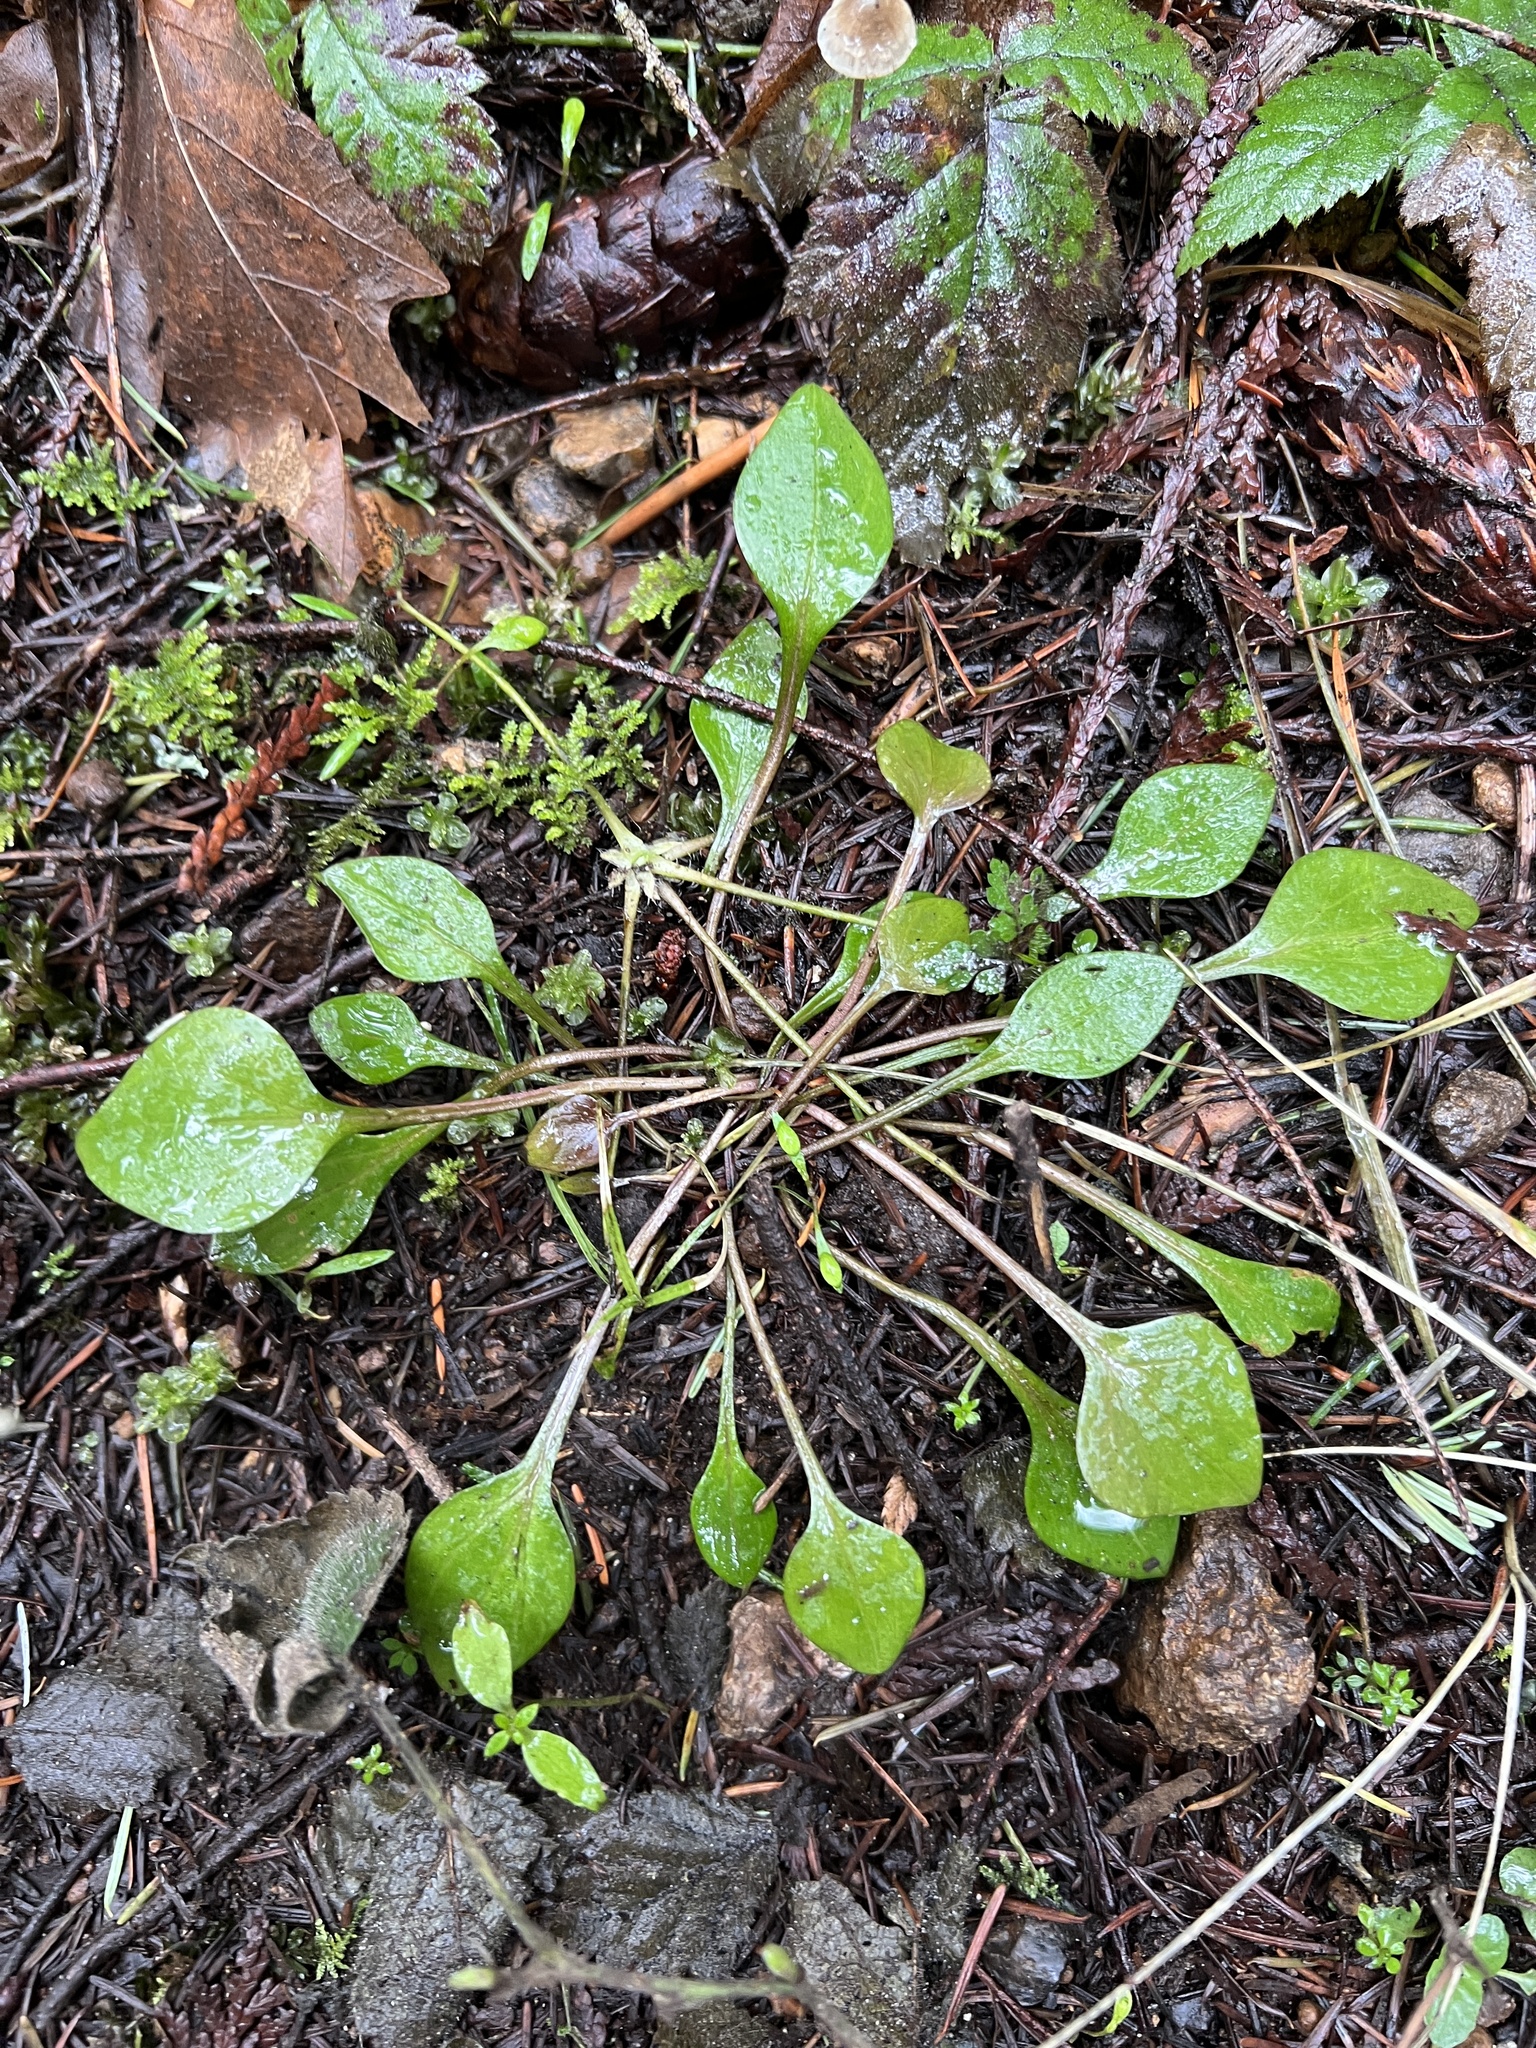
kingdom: Plantae
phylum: Tracheophyta
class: Magnoliopsida
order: Caryophyllales
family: Montiaceae
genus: Claytonia
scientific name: Claytonia sibirica
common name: Pink purslane
